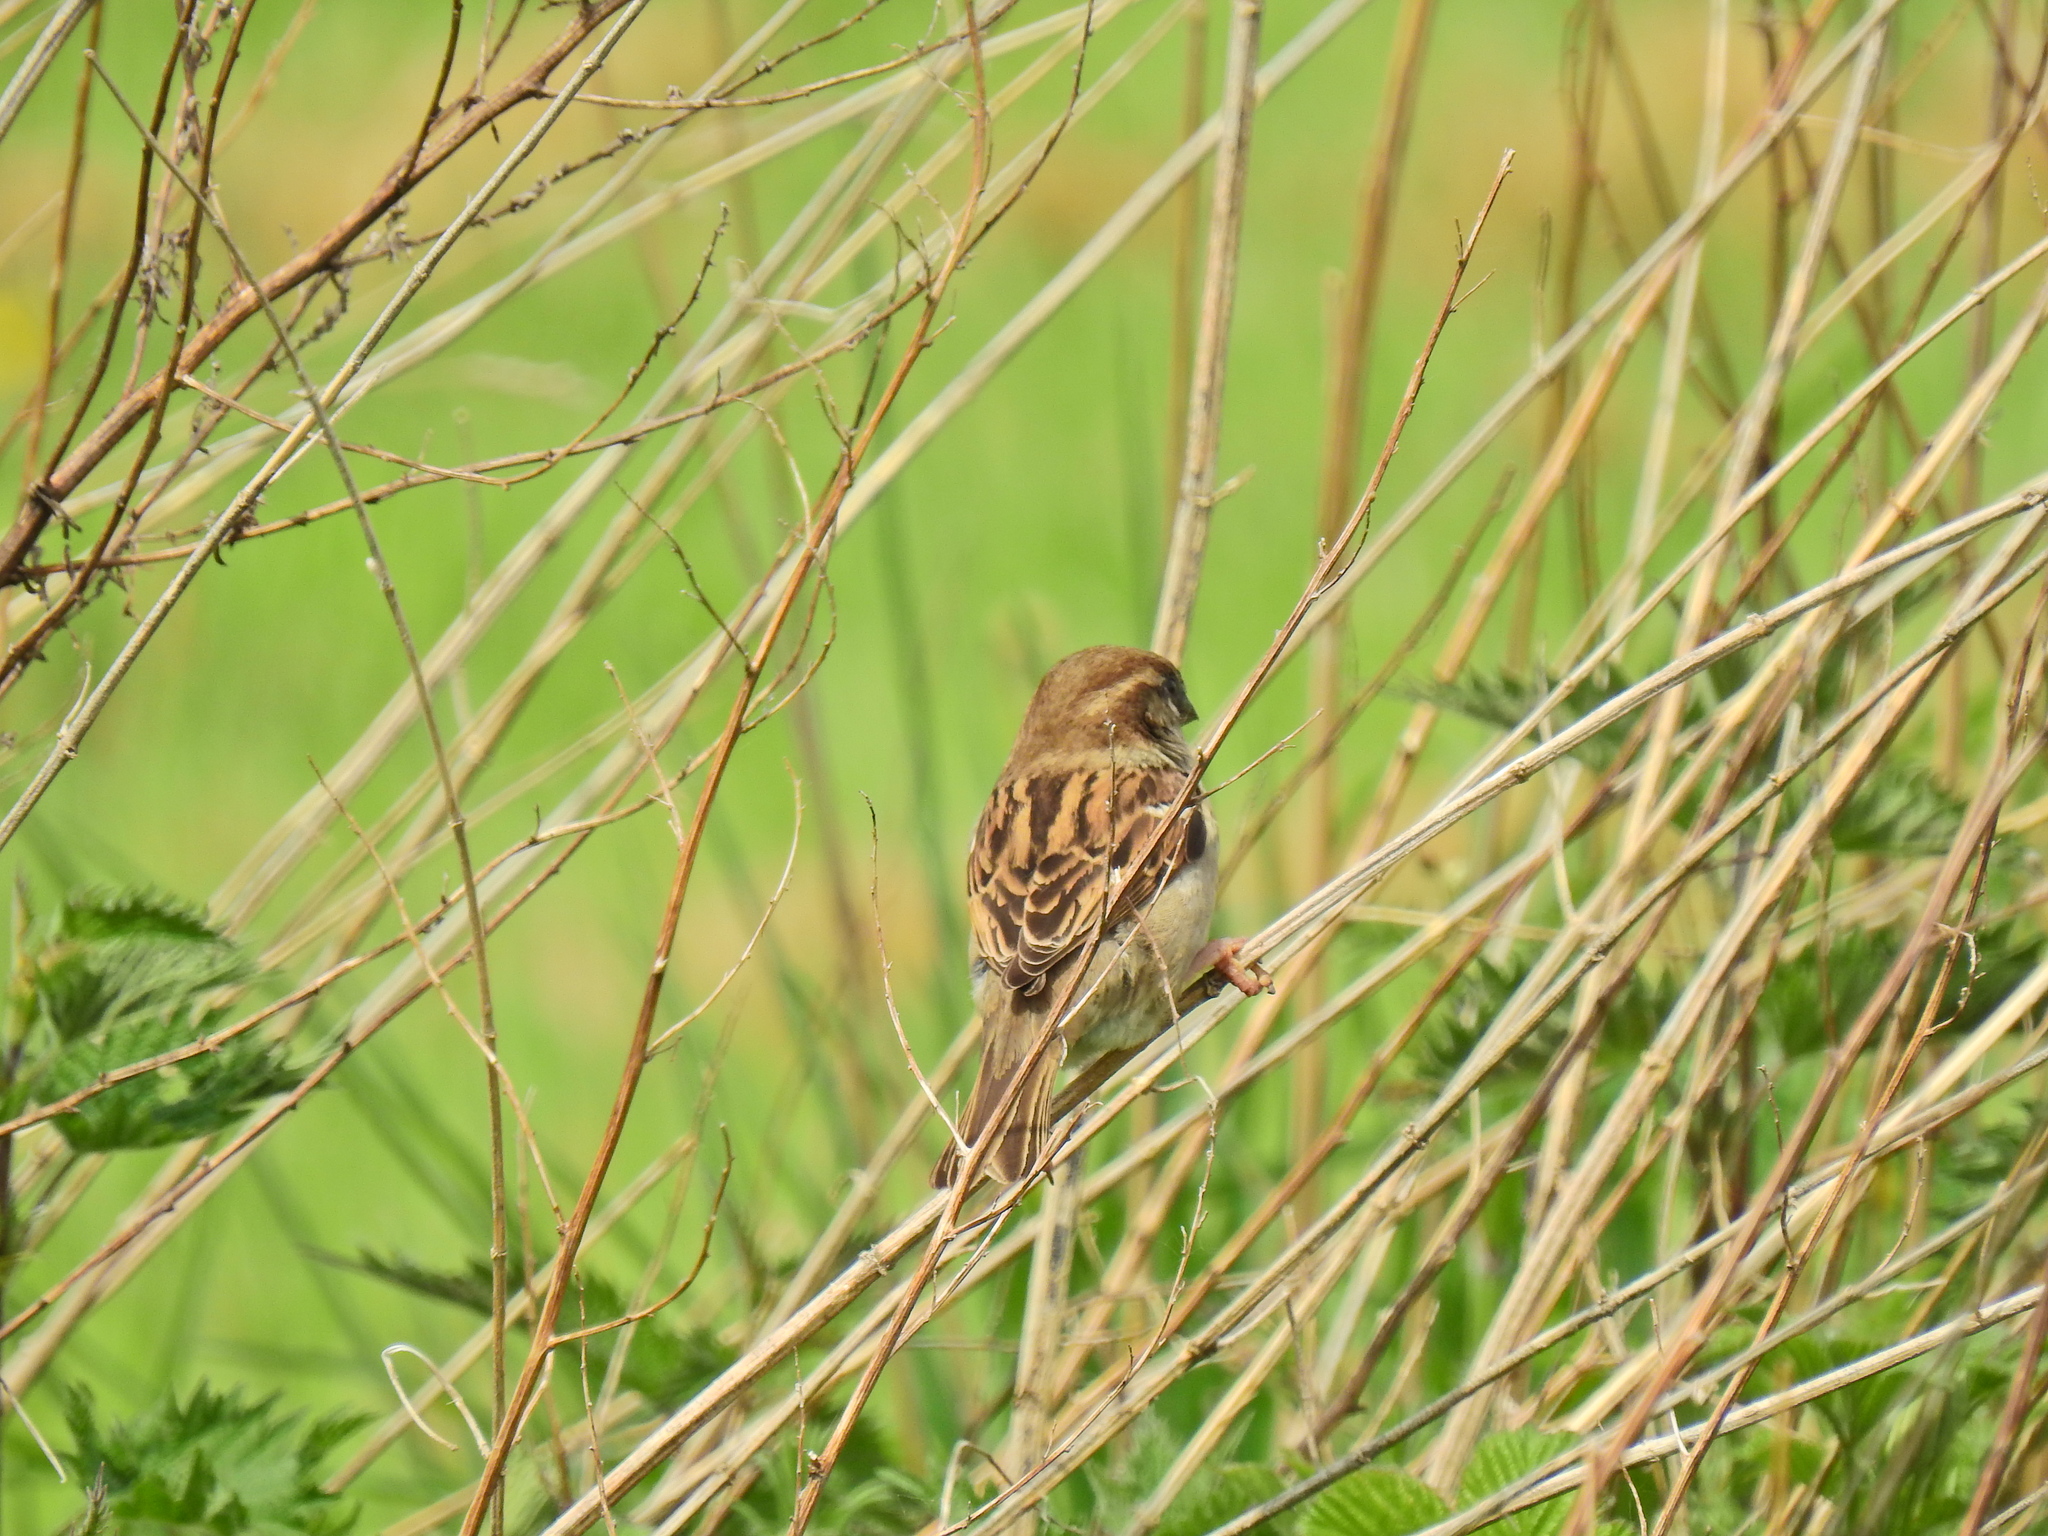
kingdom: Animalia
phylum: Chordata
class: Aves
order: Passeriformes
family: Passeridae
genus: Passer
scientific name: Passer domesticus
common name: House sparrow
